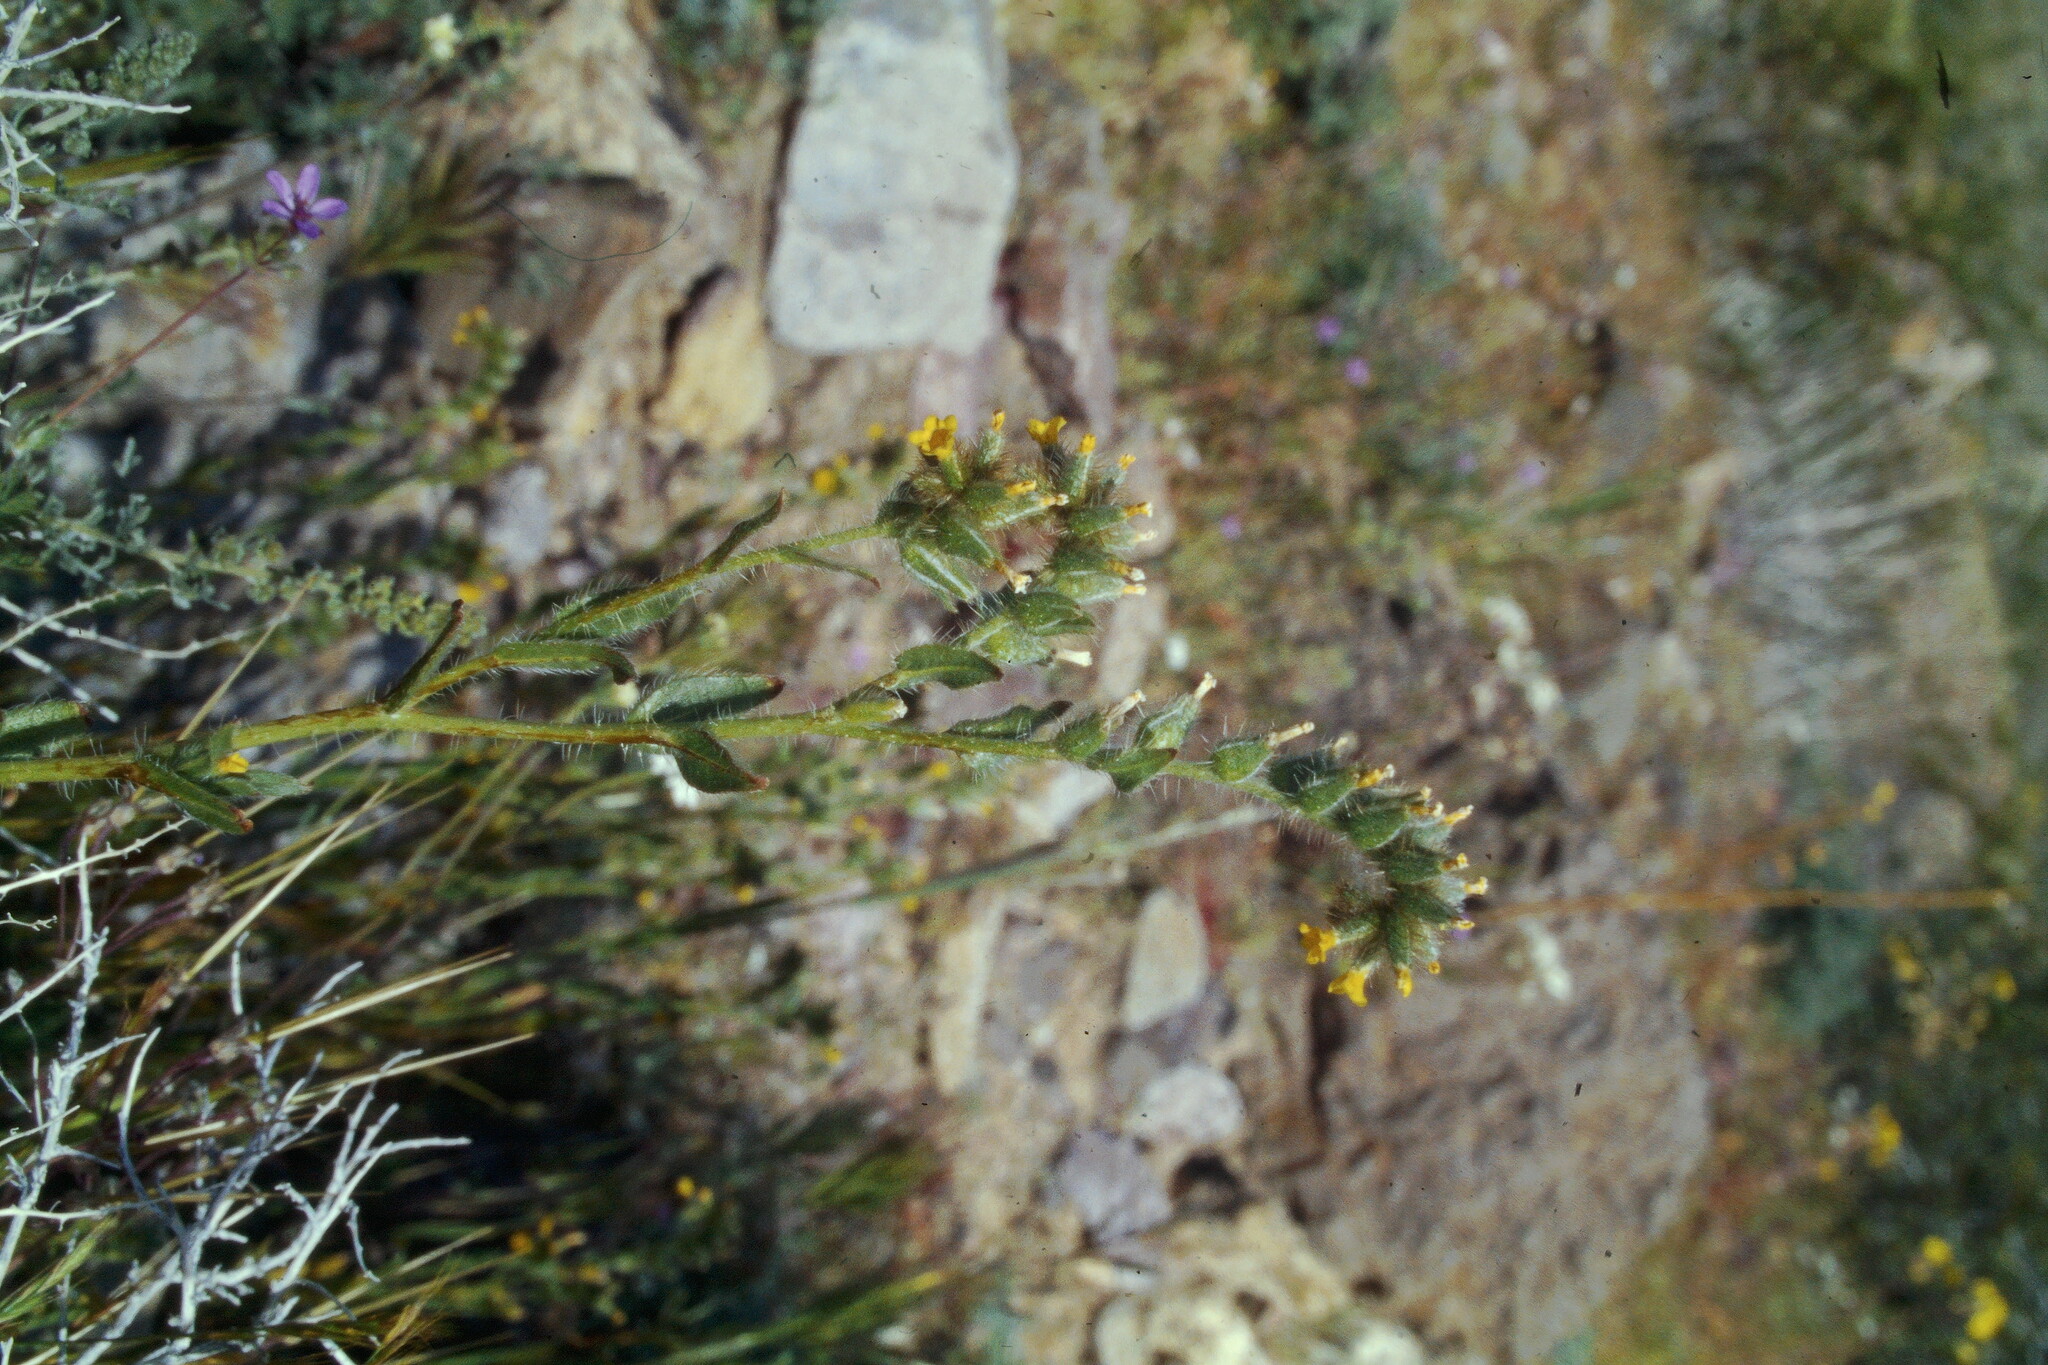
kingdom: Plantae
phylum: Tracheophyta
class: Magnoliopsida
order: Boraginales
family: Boraginaceae
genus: Amsinckia
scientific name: Amsinckia tessellata
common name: Tessellate fiddleneck
